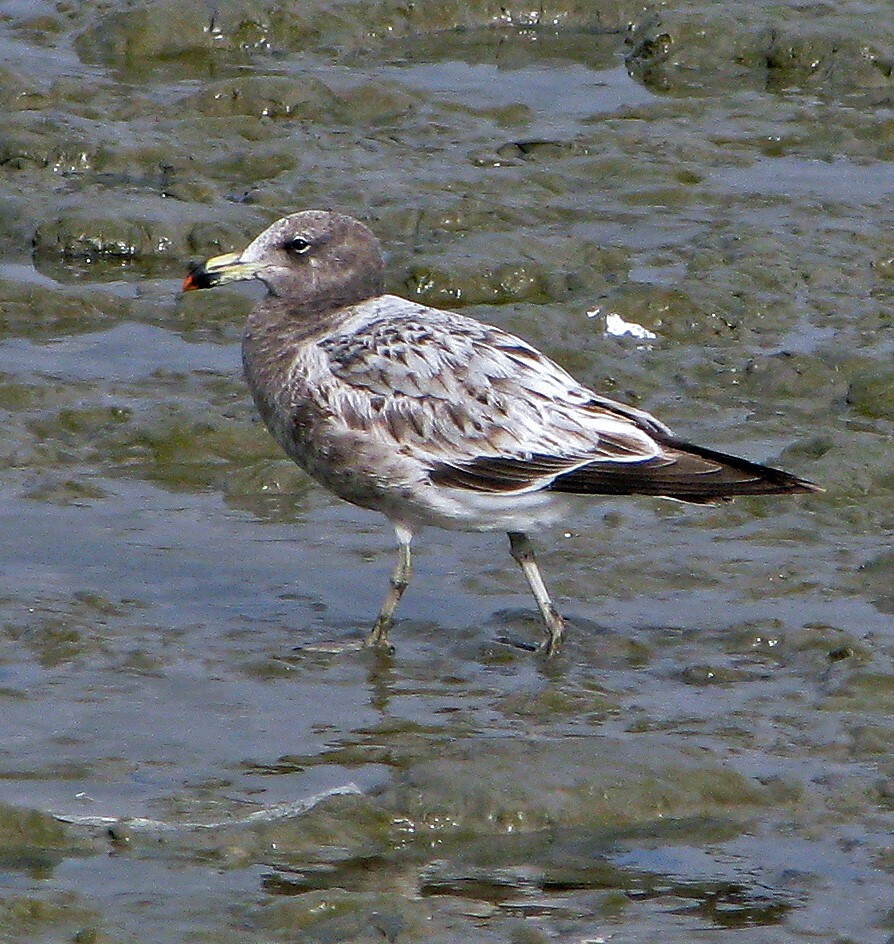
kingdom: Animalia
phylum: Chordata
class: Aves
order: Charadriiformes
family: Laridae
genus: Larus
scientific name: Larus atlanticus
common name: Olrog's gull
